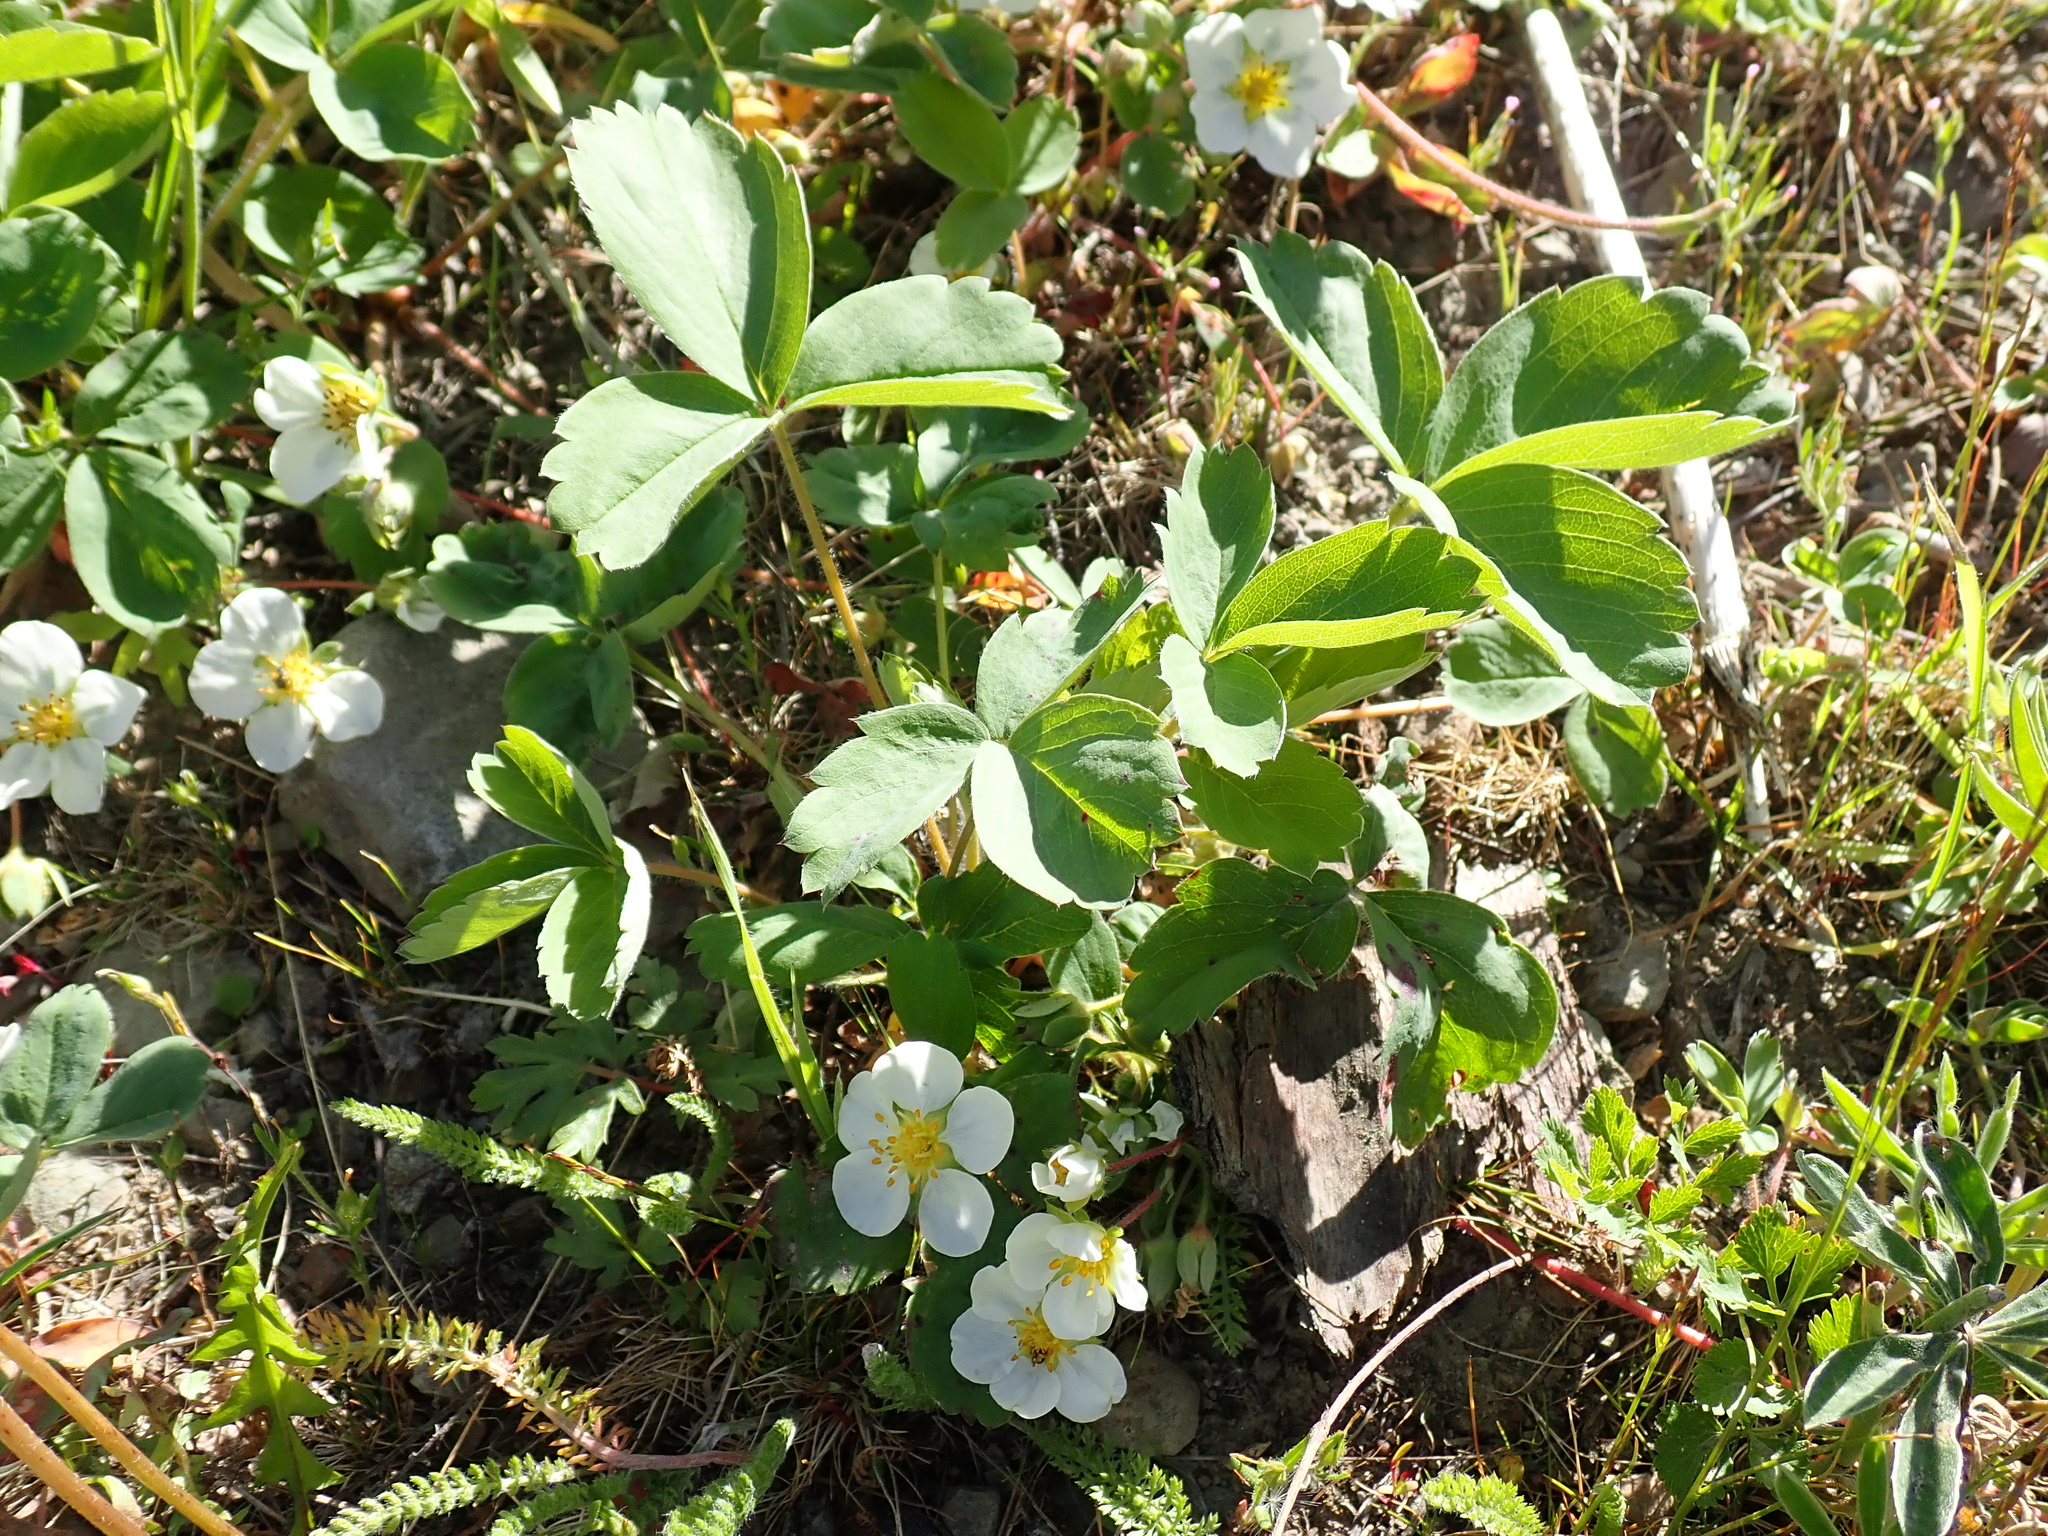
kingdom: Plantae
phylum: Tracheophyta
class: Magnoliopsida
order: Rosales
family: Rosaceae
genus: Fragaria
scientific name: Fragaria virginiana
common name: Thickleaved wild strawberry
